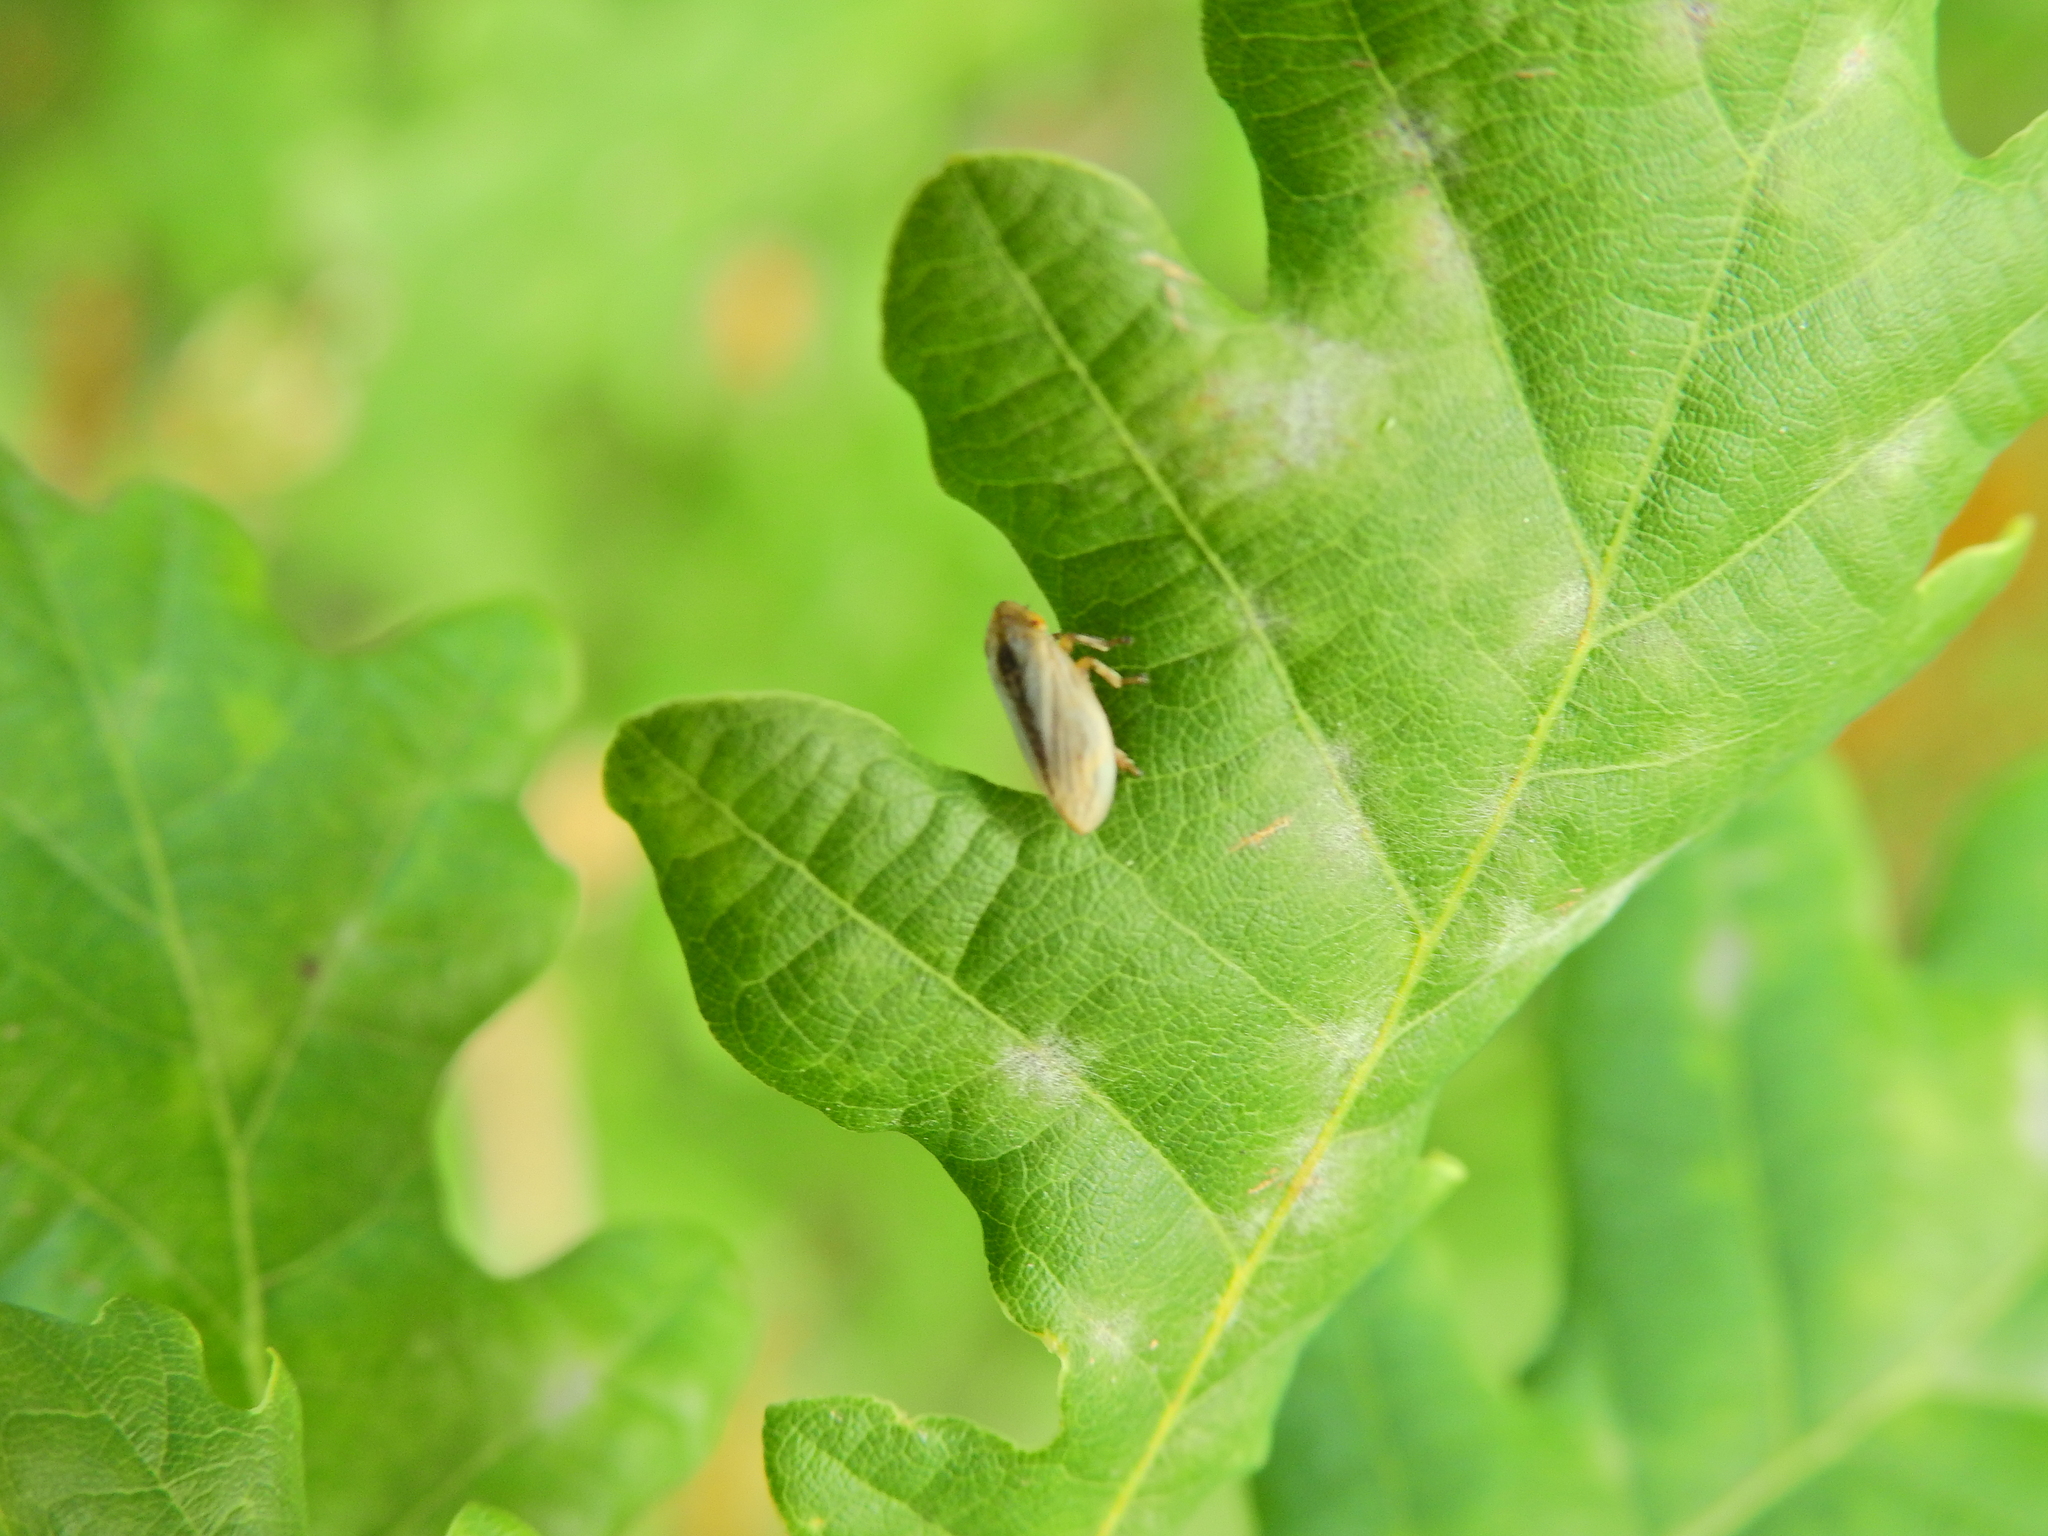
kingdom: Animalia
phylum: Arthropoda
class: Insecta
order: Hemiptera
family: Aphrophoridae
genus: Philaenus
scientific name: Philaenus spumarius
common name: Meadow spittlebug
